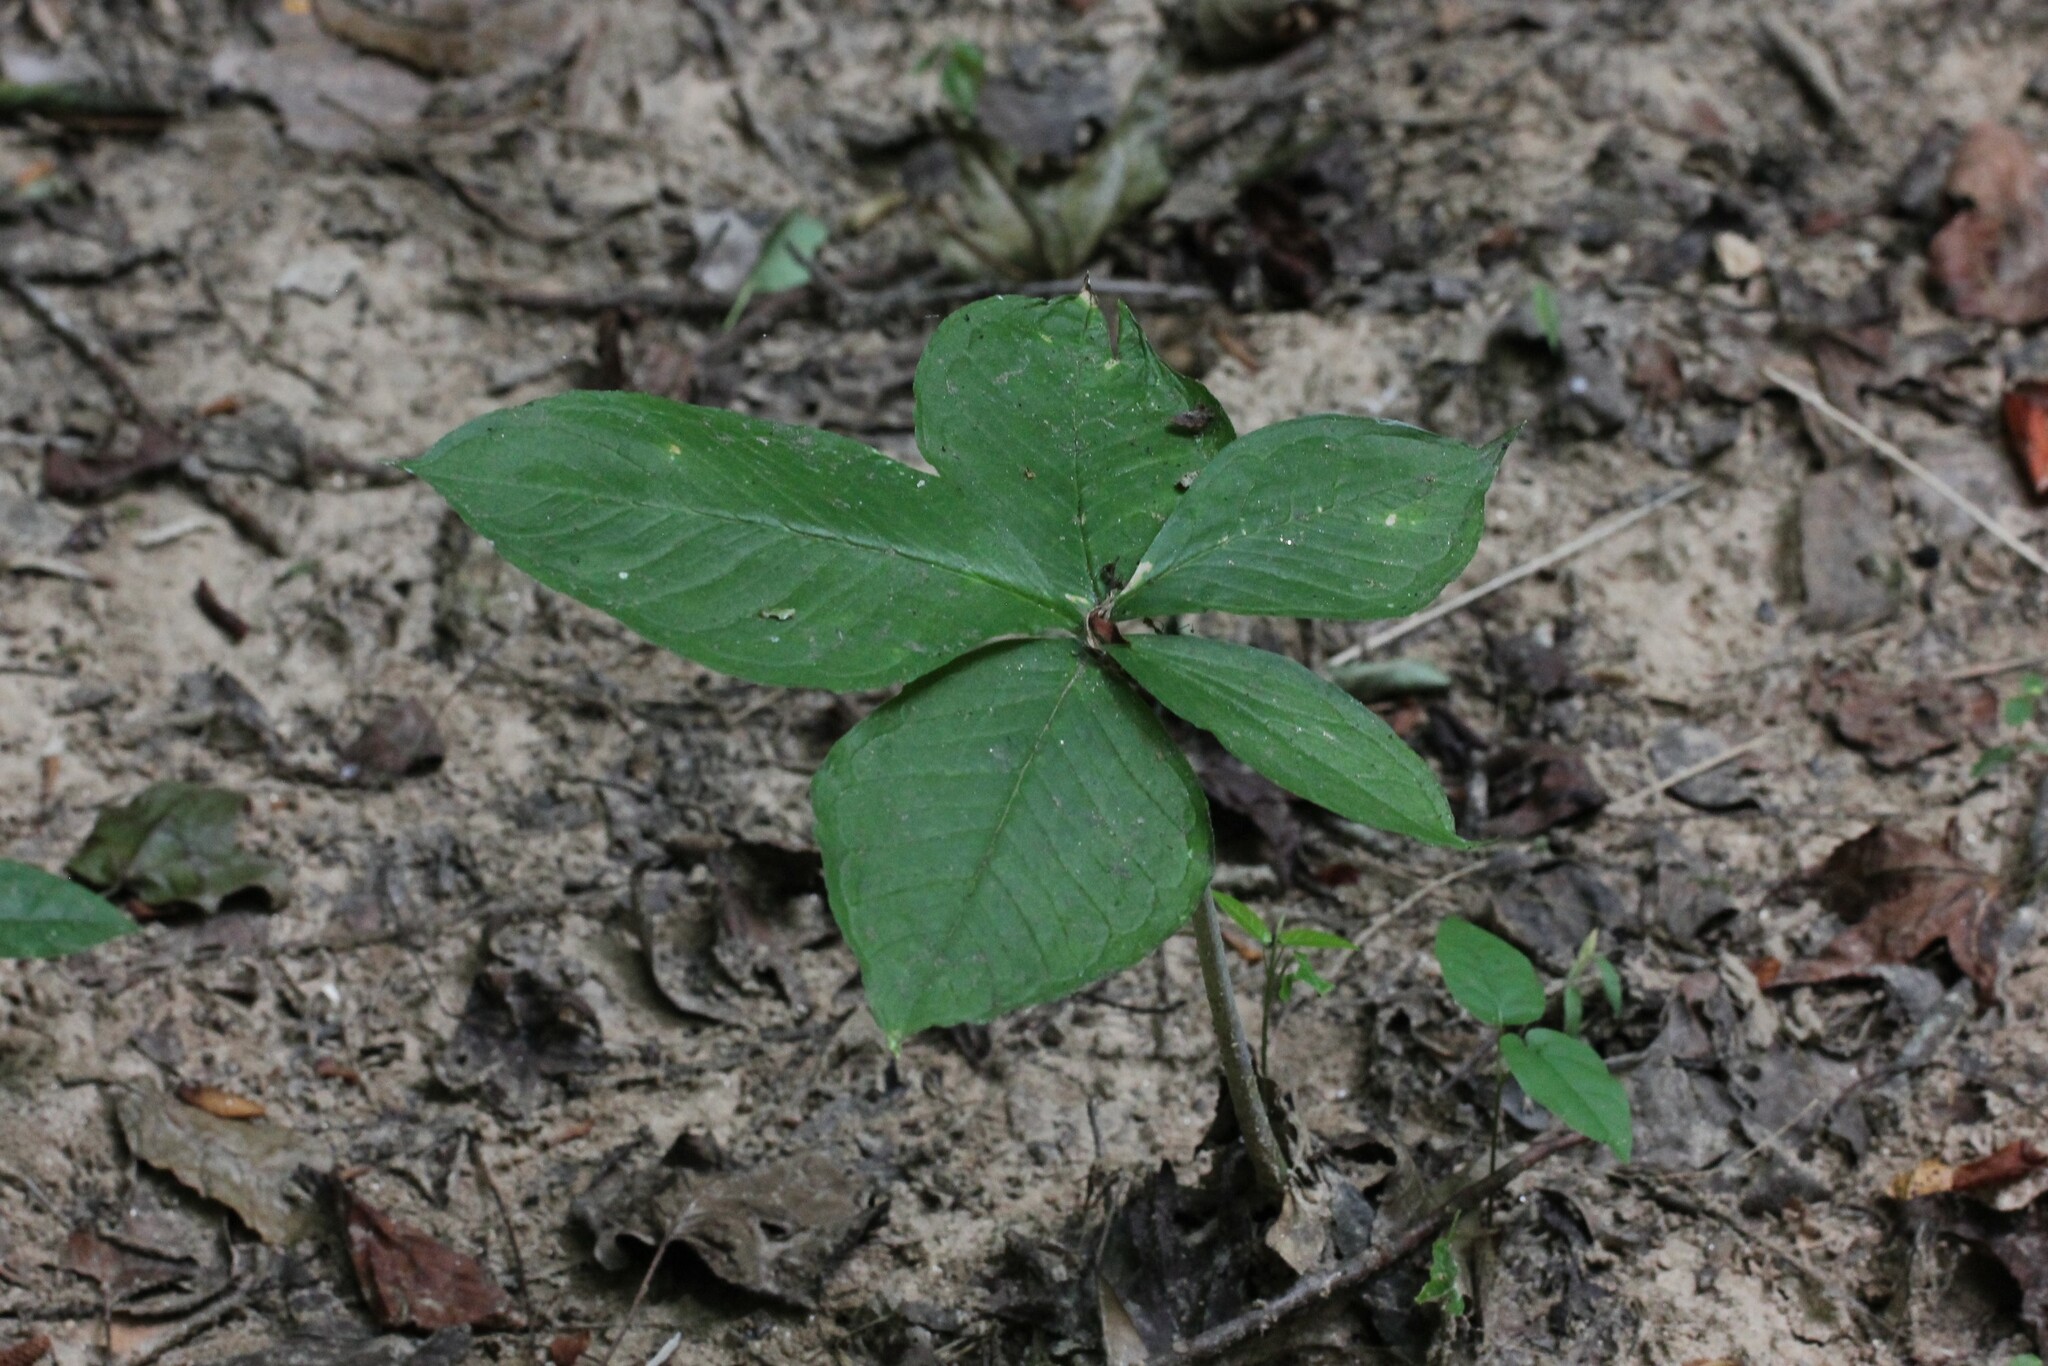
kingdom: Plantae
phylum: Tracheophyta
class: Liliopsida
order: Alismatales
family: Araceae
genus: Arisaema
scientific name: Arisaema quinatum
